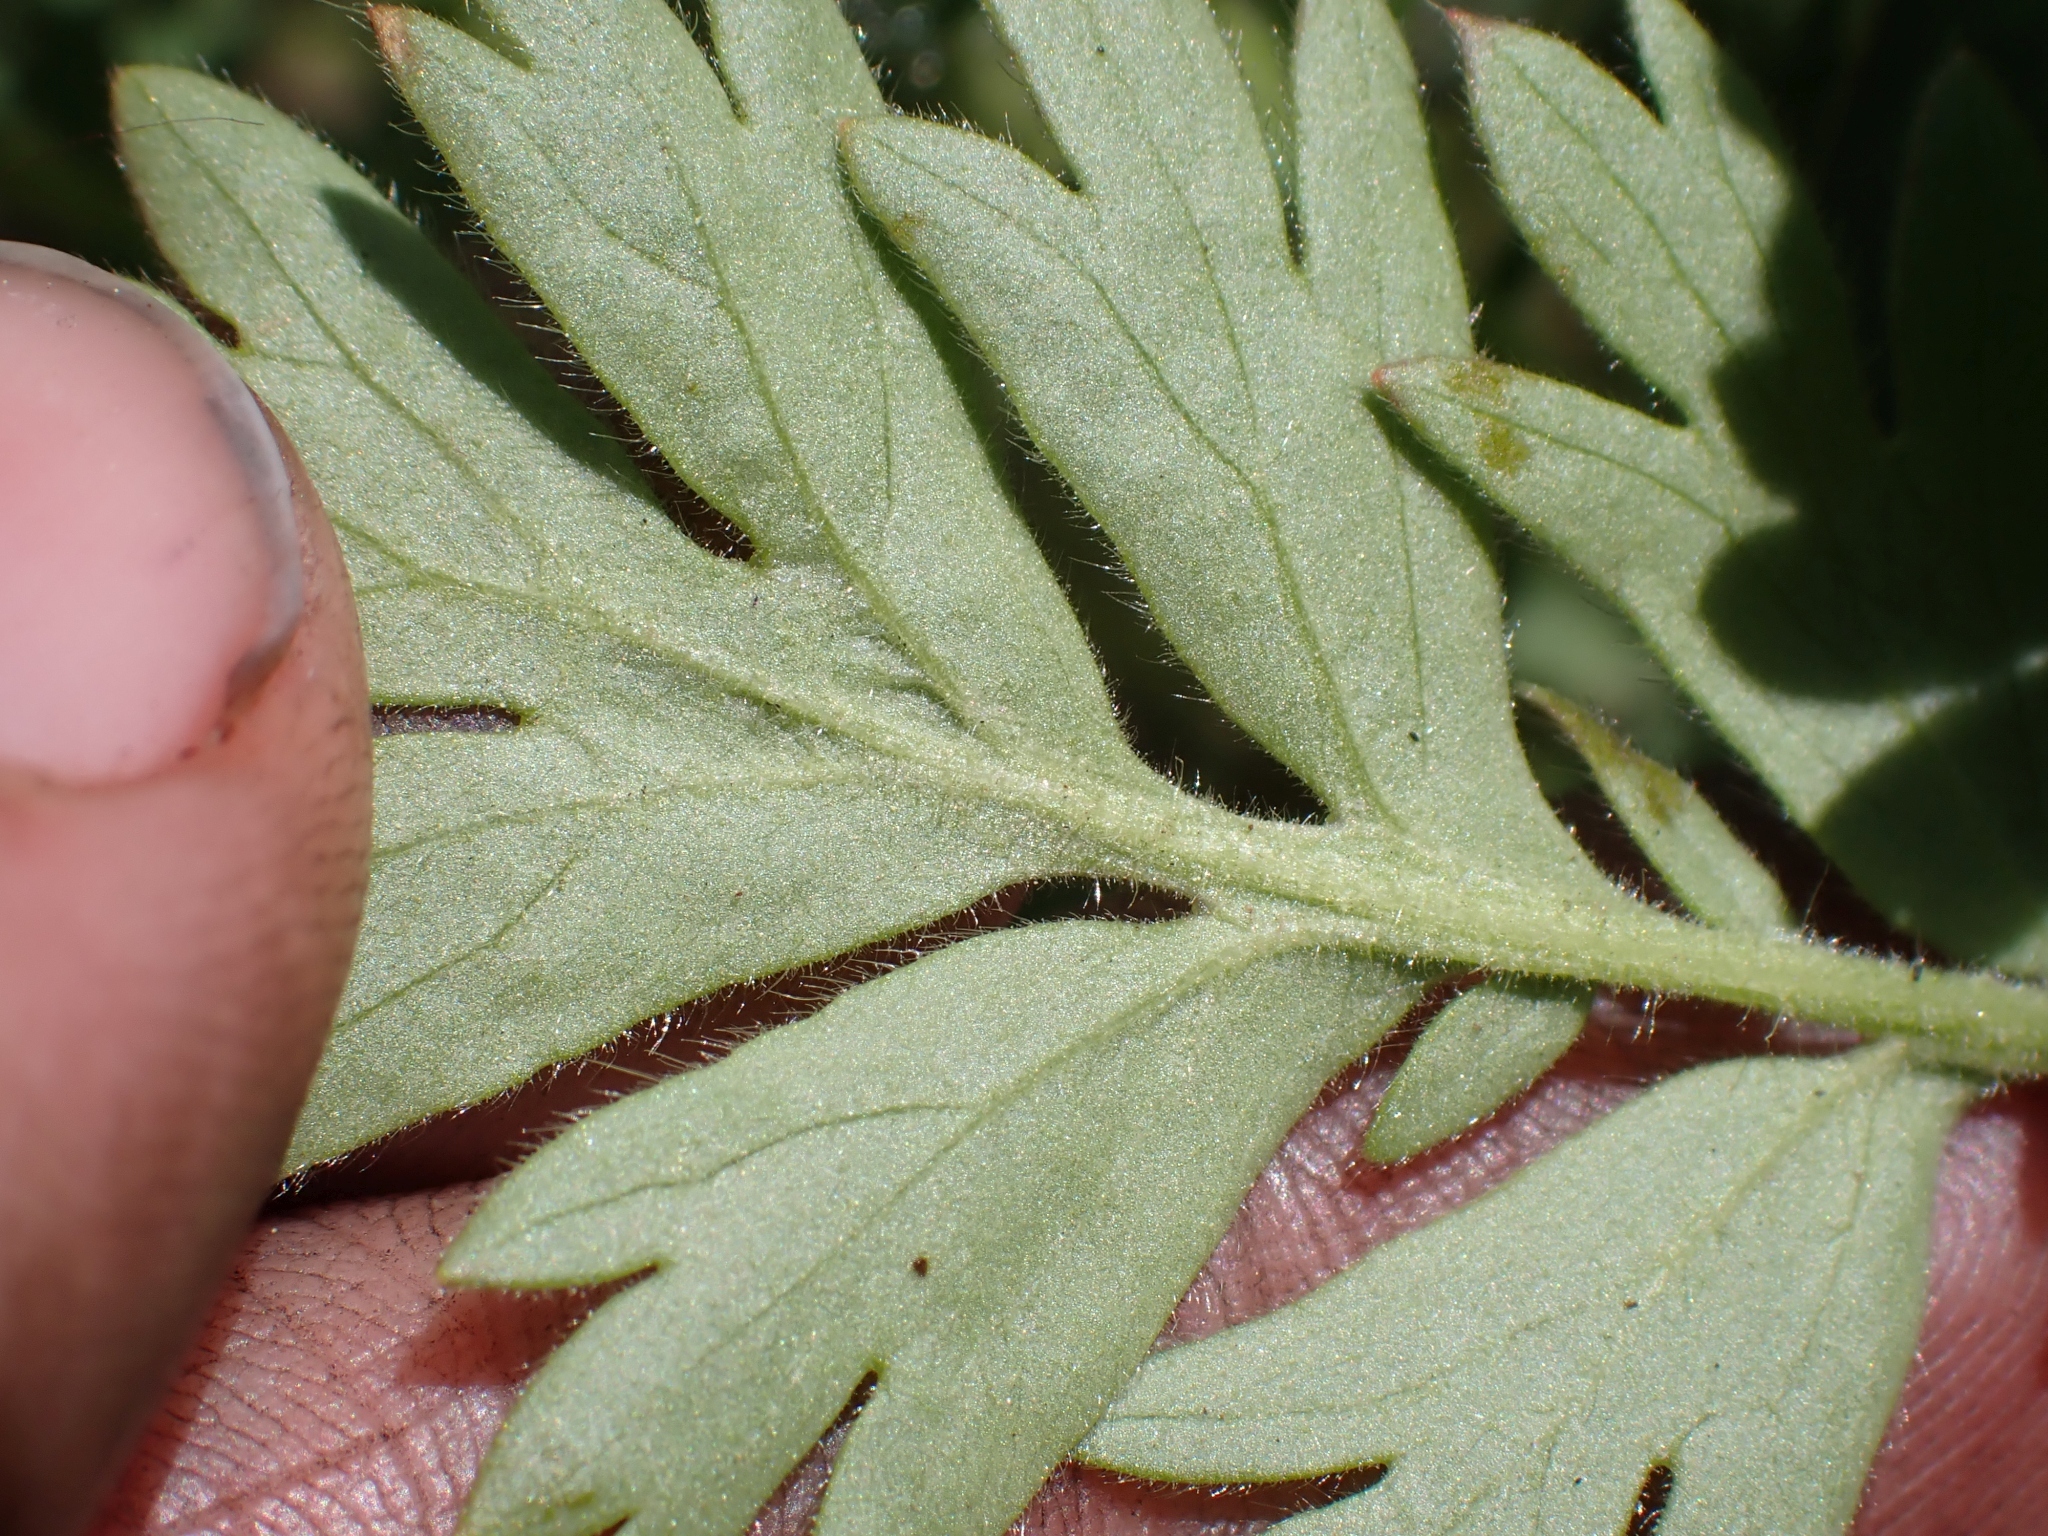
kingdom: Plantae
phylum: Tracheophyta
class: Magnoliopsida
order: Rosales
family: Rosaceae
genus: Geum
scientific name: Geum triflorum
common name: Old man's whiskers
